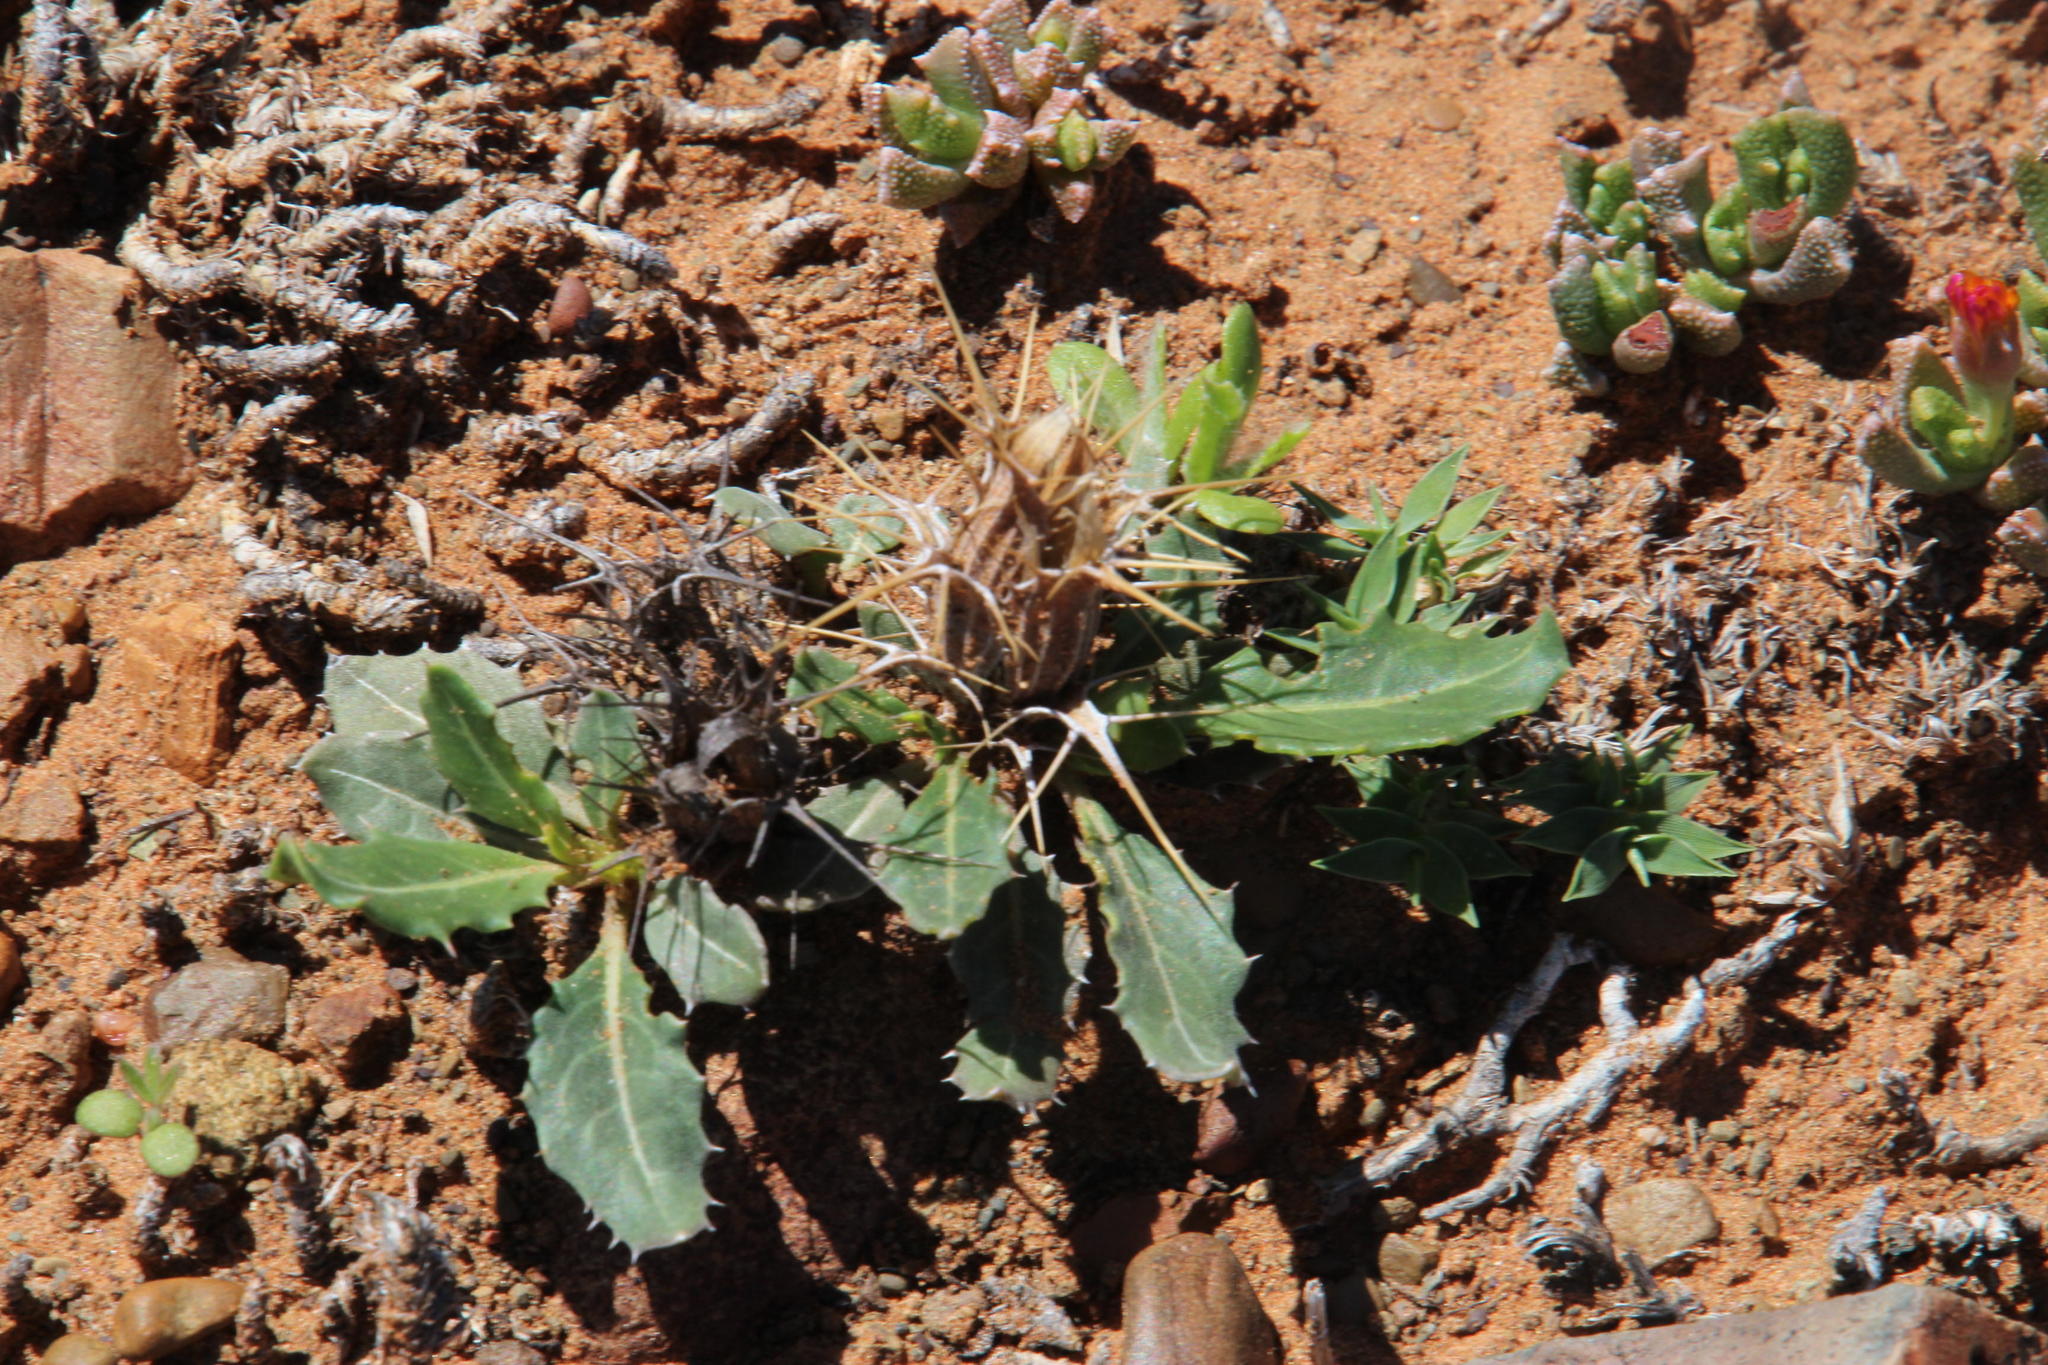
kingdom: Plantae
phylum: Tracheophyta
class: Magnoliopsida
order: Lamiales
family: Acanthaceae
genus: Blepharis
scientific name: Blepharis mitrata
